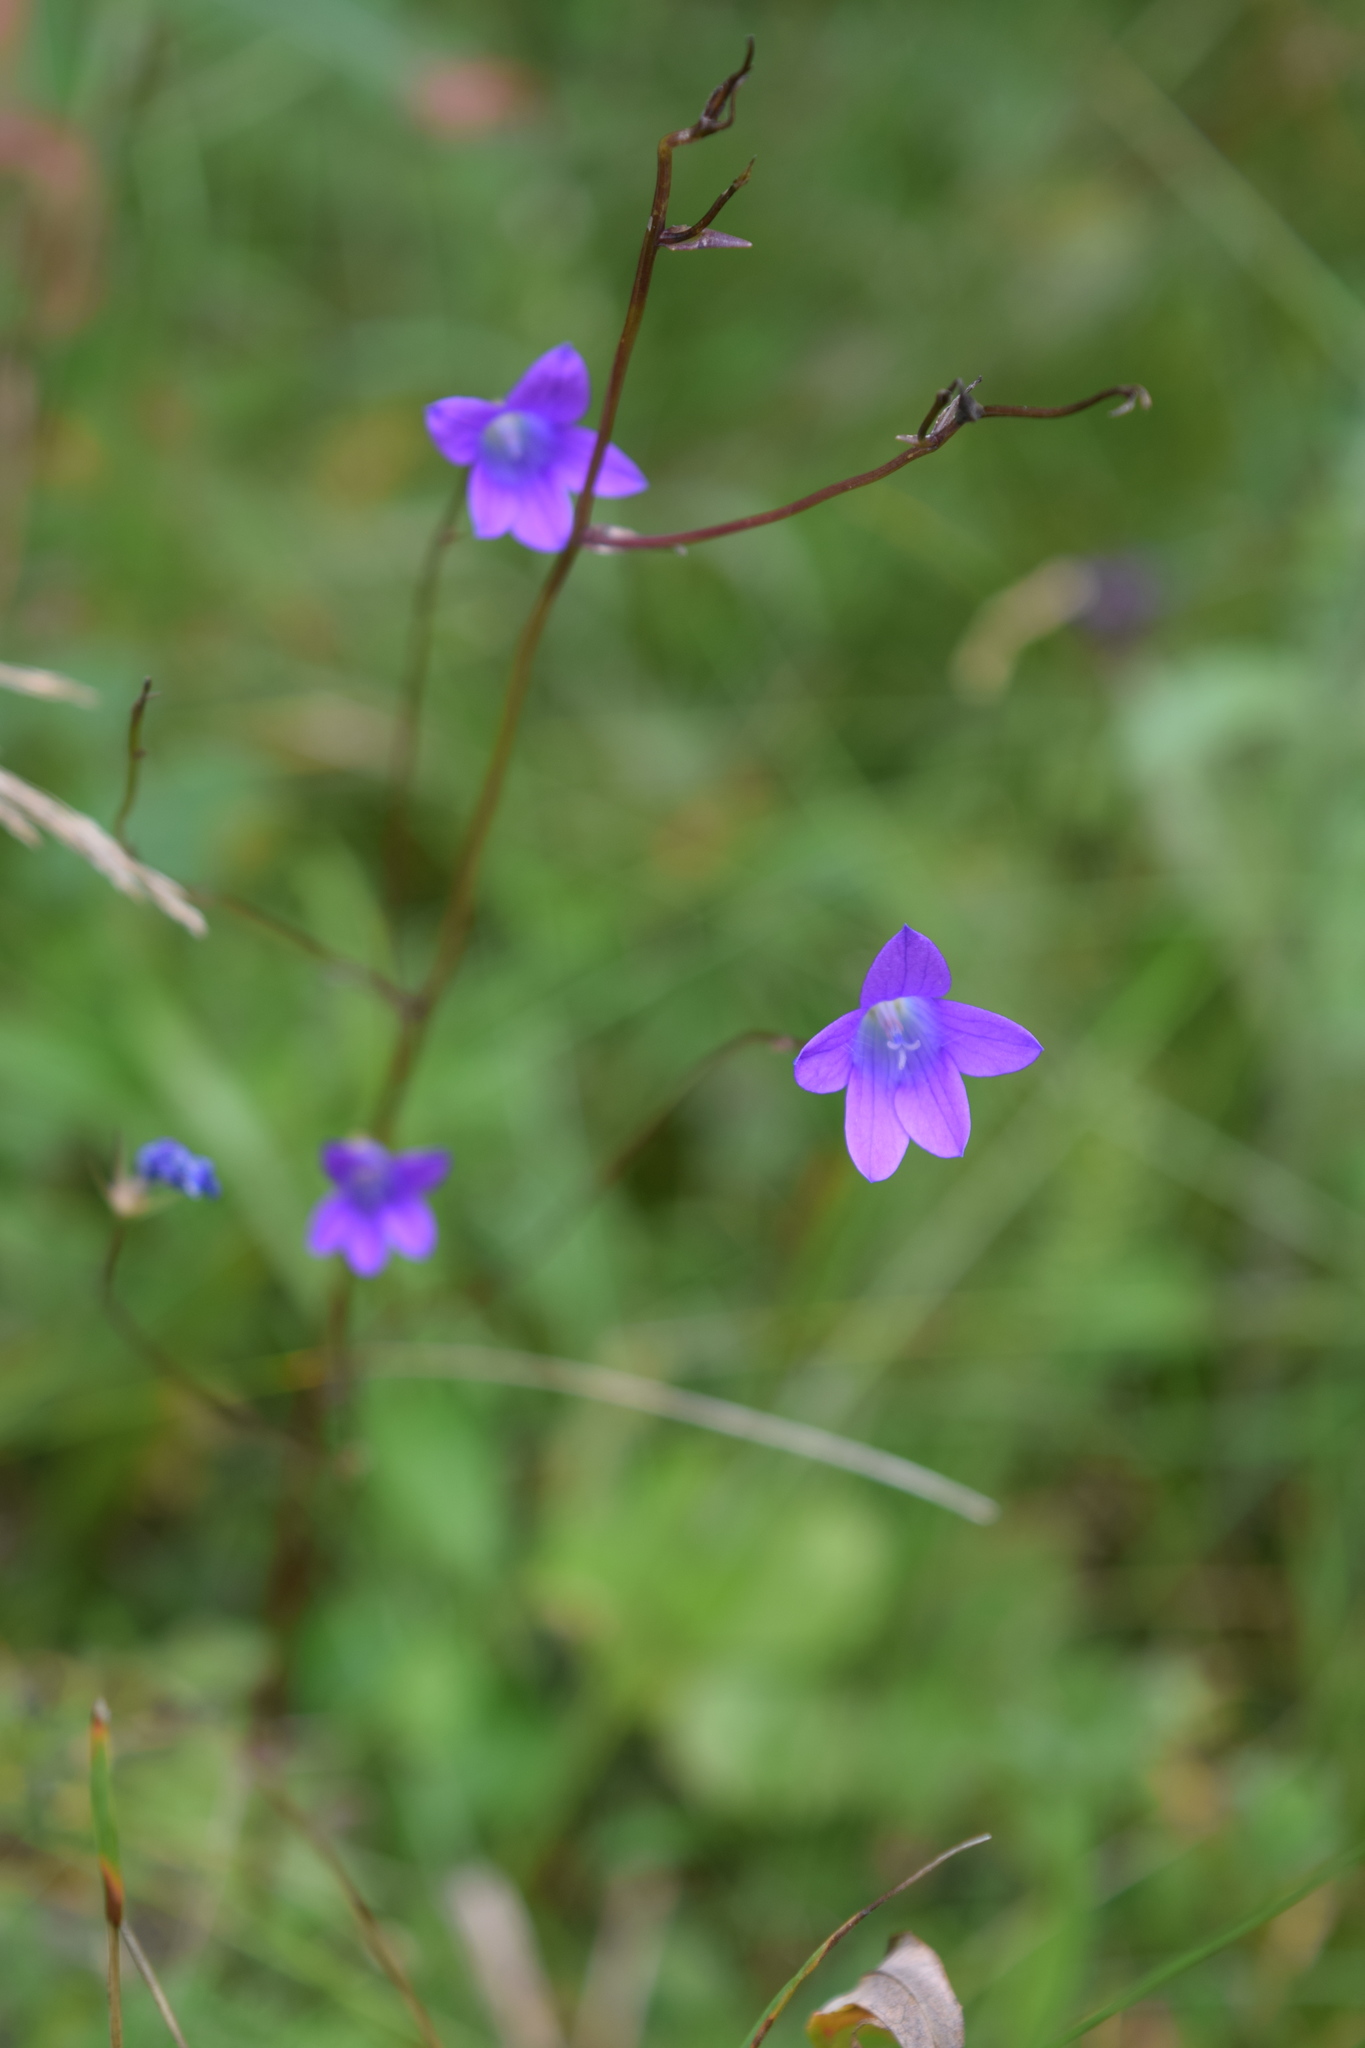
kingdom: Plantae
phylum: Tracheophyta
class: Magnoliopsida
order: Asterales
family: Campanulaceae
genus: Campanula
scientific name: Campanula patula
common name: Spreading bellflower
